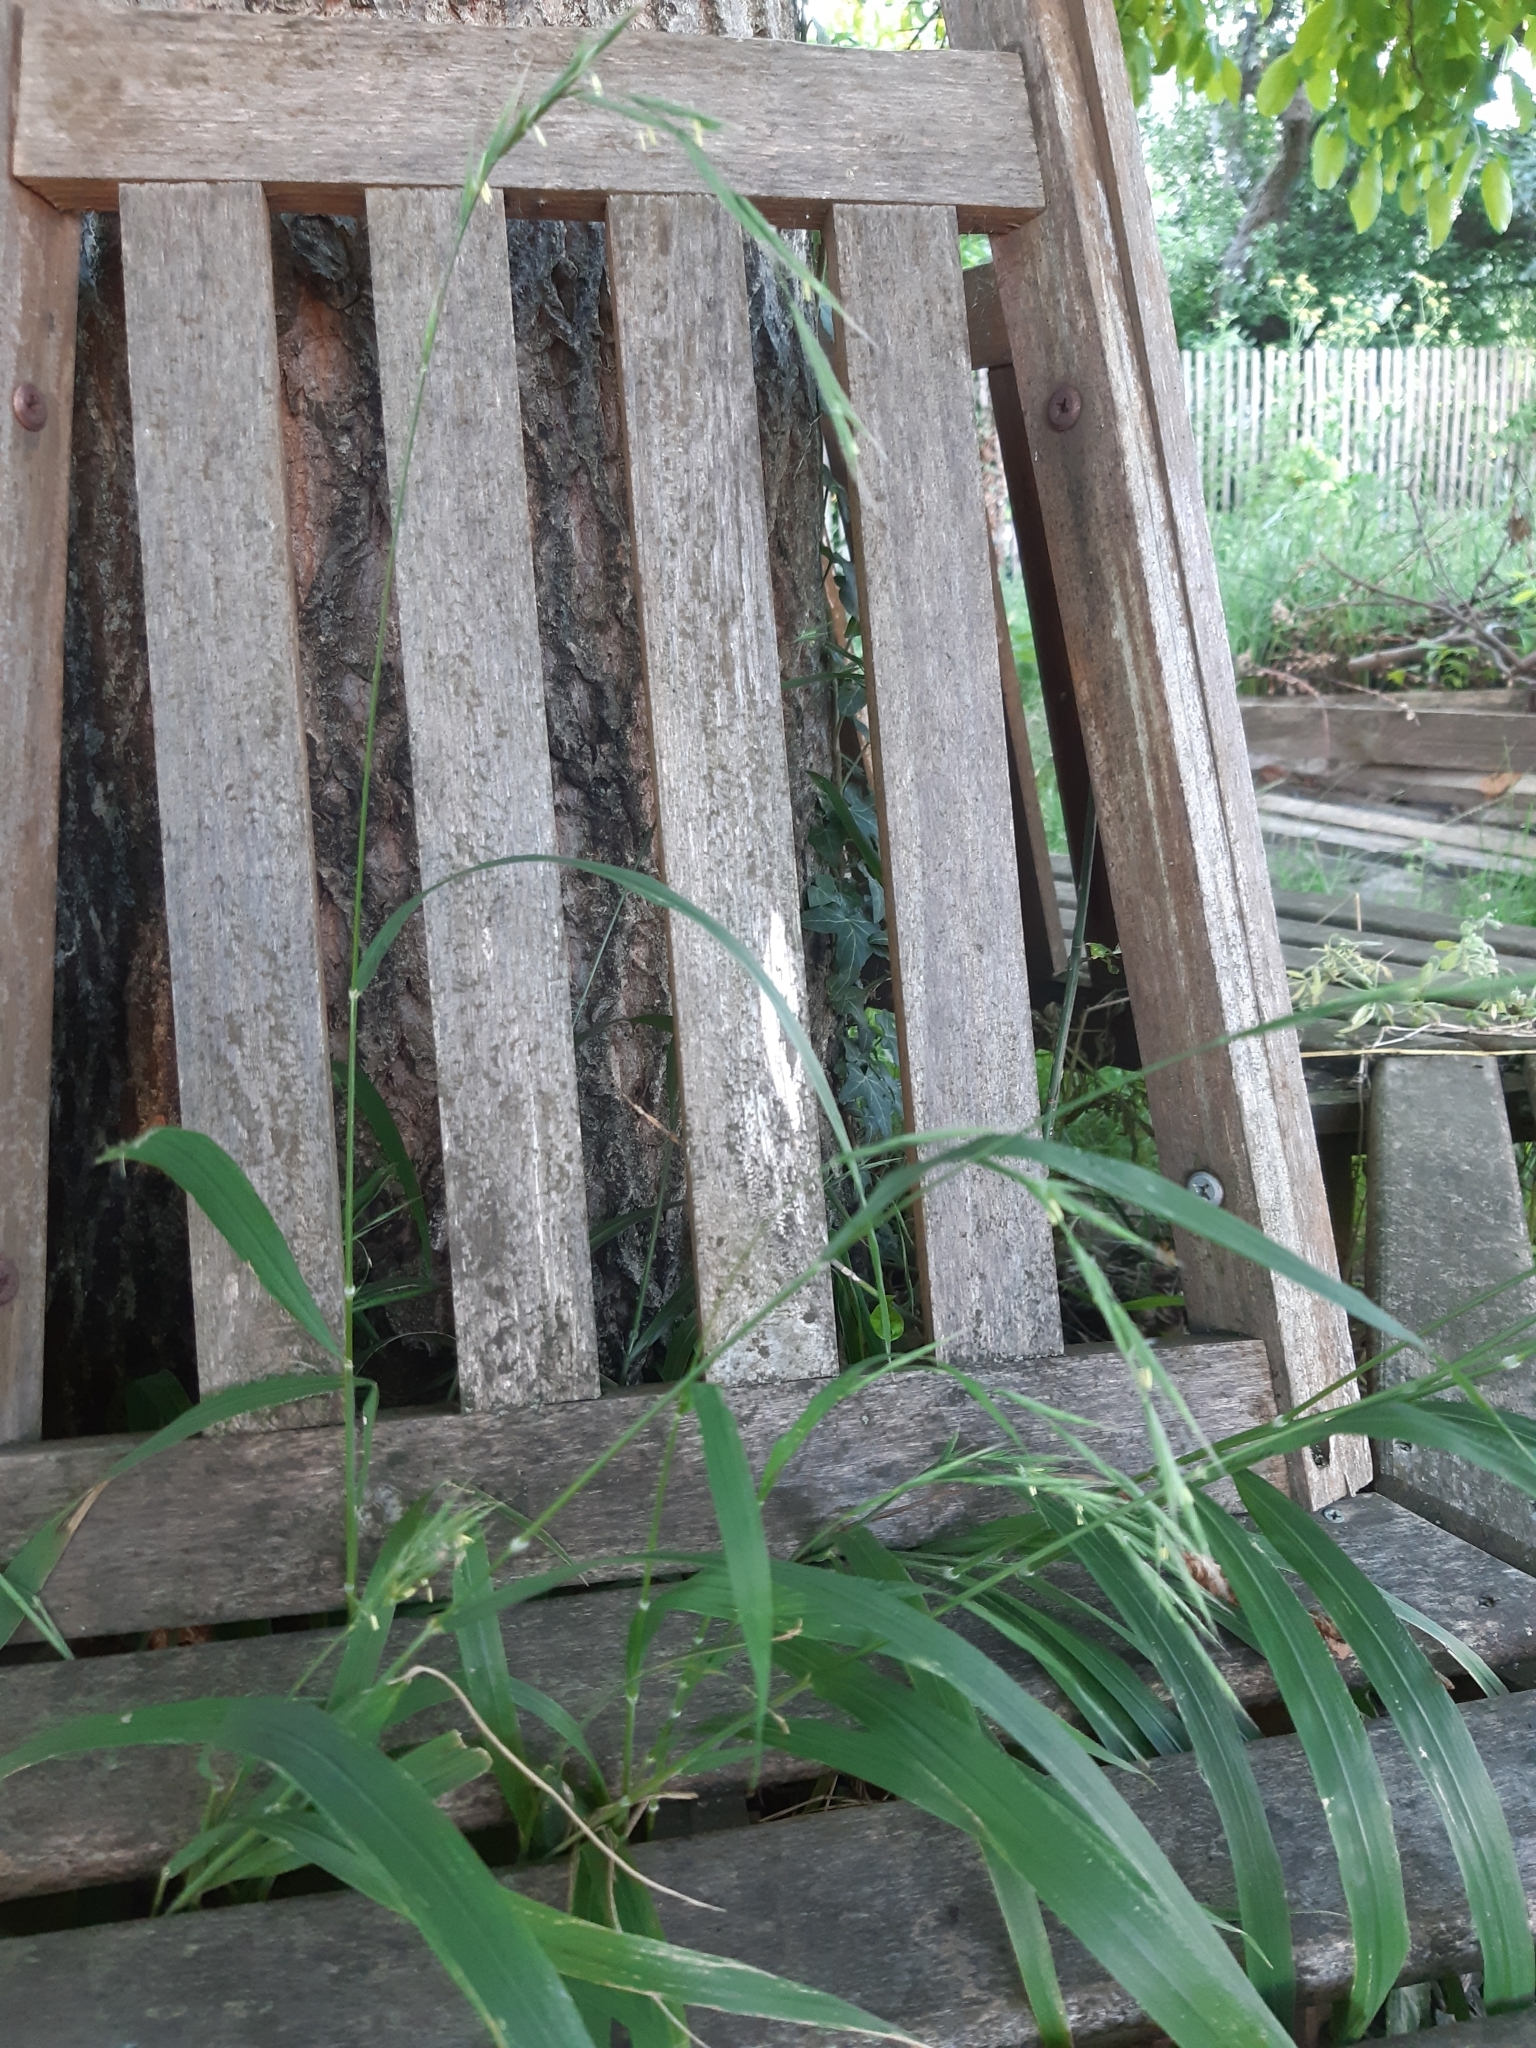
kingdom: Plantae
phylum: Tracheophyta
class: Liliopsida
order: Poales
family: Poaceae
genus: Brachypodium
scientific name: Brachypodium sylvaticum
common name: False-brome
